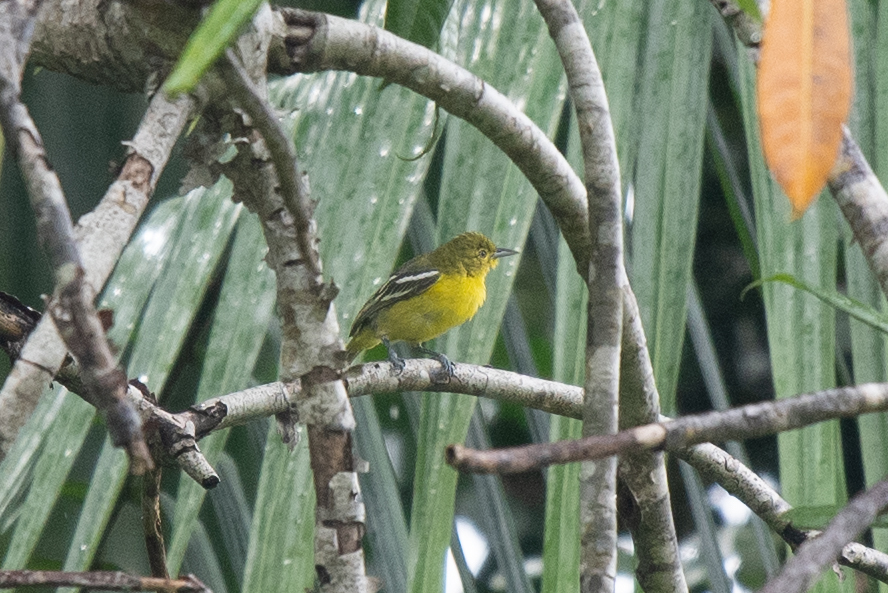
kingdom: Animalia
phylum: Chordata
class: Aves
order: Passeriformes
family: Aegithinidae
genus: Aegithina
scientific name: Aegithina tiphia
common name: Common iora
